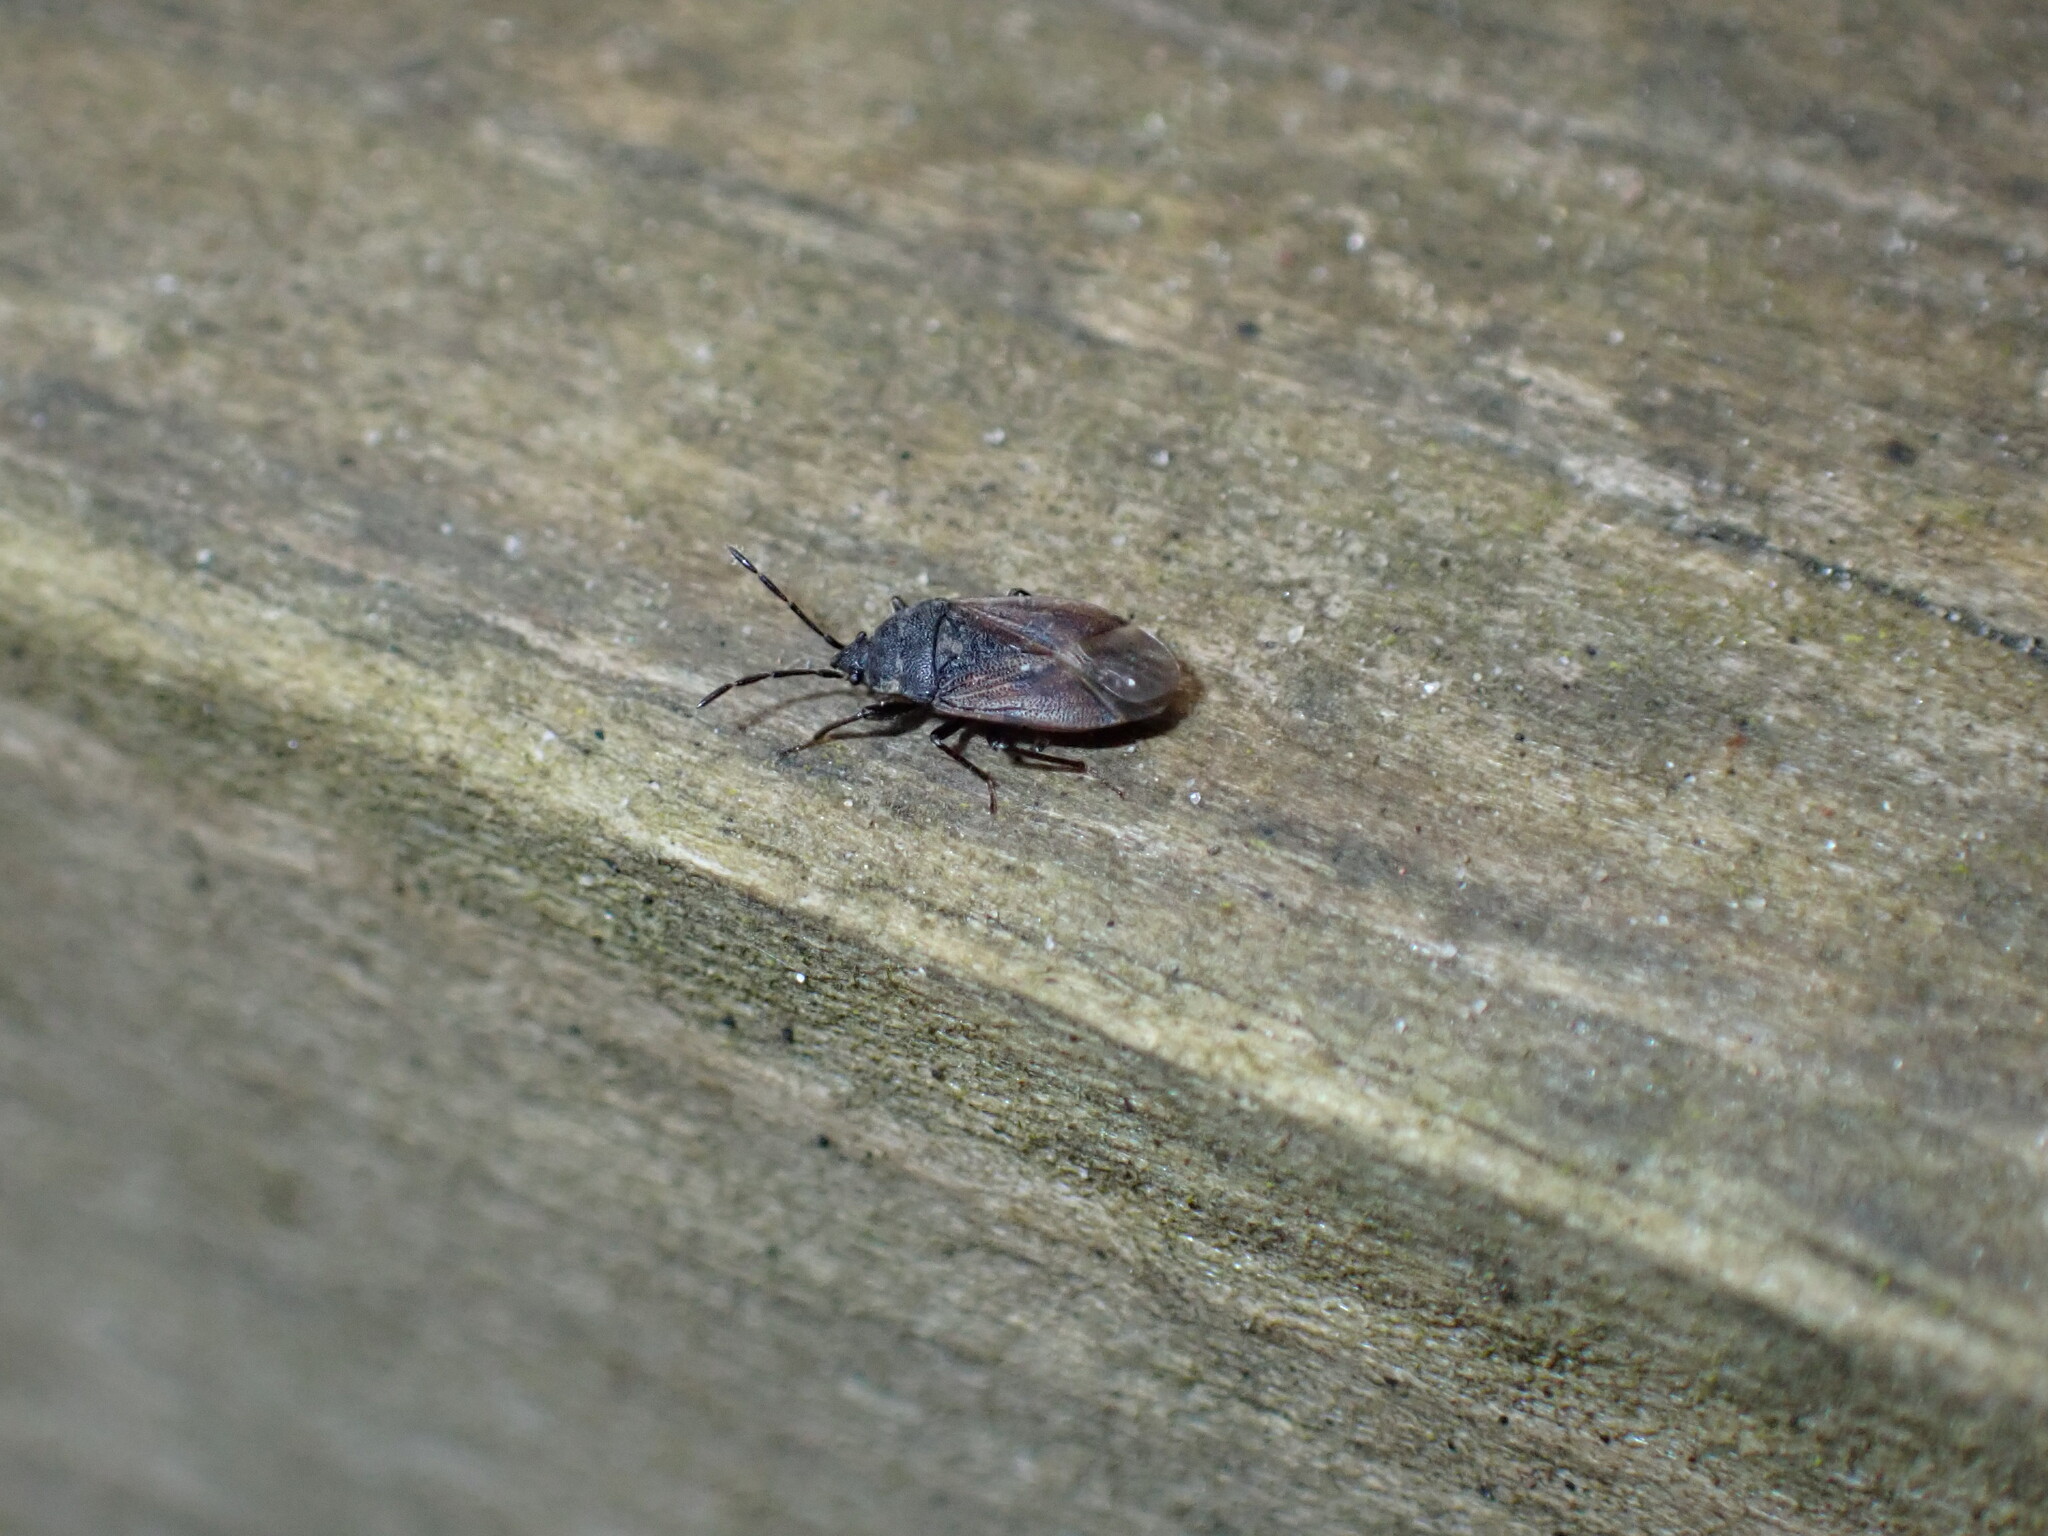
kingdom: Animalia
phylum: Arthropoda
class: Insecta
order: Hemiptera
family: Rhyparochromidae
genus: Drymus
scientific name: Drymus sylvaticus
